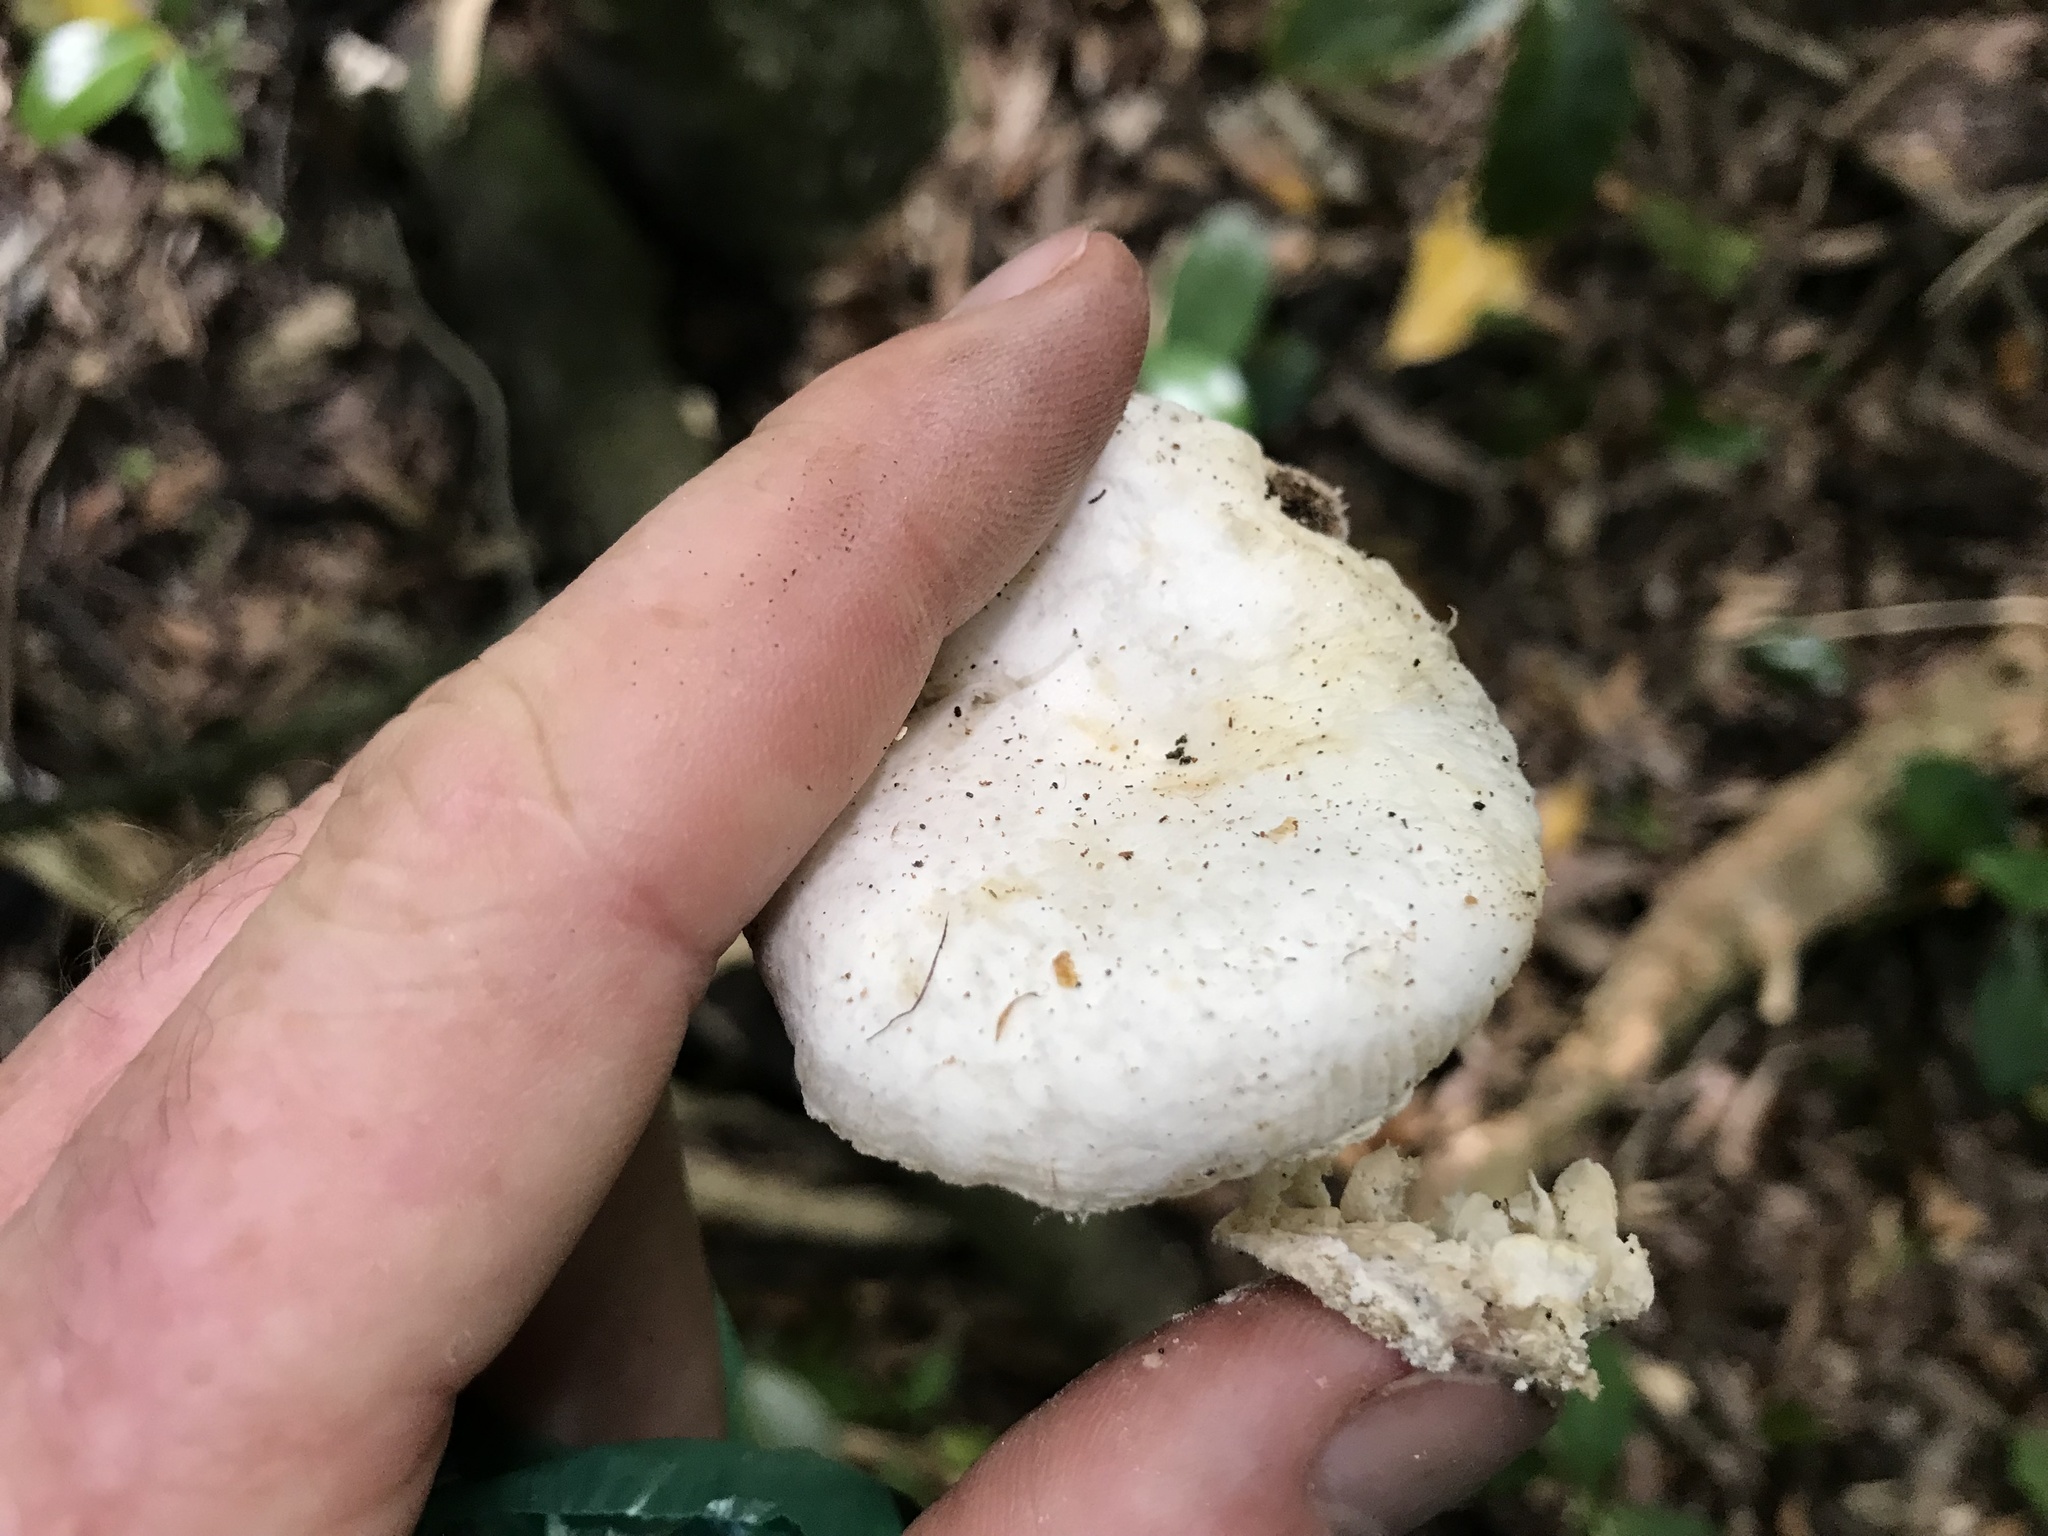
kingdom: Fungi
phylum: Basidiomycota
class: Agaricomycetes
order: Agaricales
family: Physalacriaceae
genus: Oudemansiella
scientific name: Oudemansiella australis
